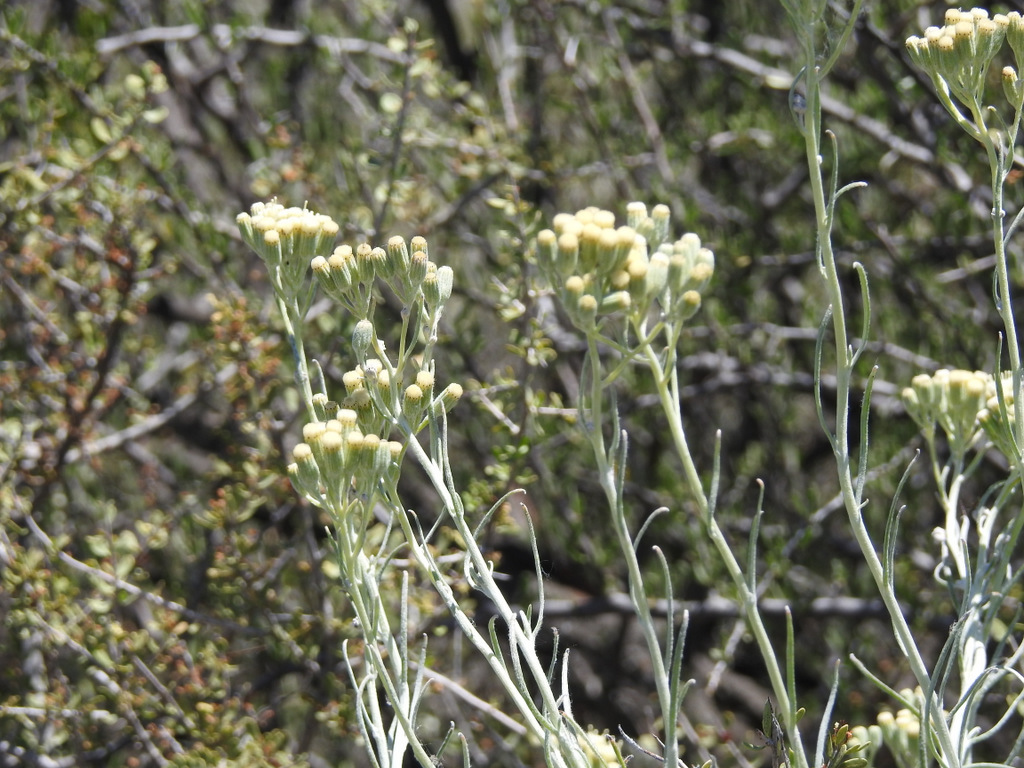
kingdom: Plantae
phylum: Tracheophyta
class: Magnoliopsida
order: Asterales
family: Asteraceae
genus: Senecio
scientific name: Senecio filaginoides
